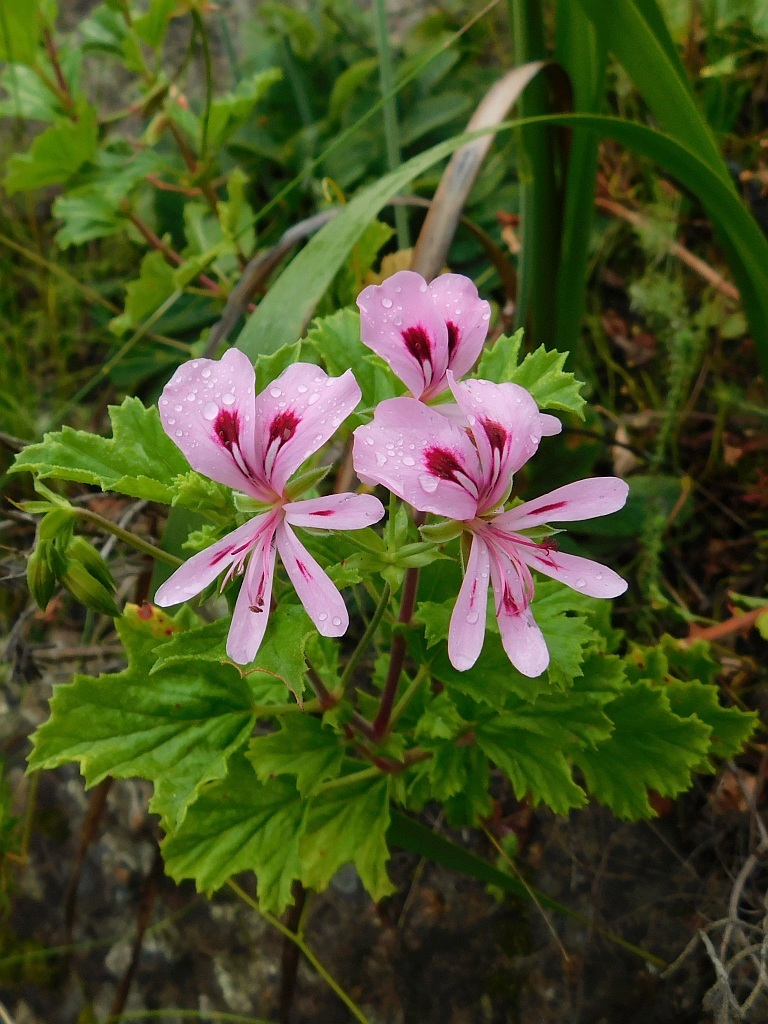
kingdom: Plantae
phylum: Tracheophyta
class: Magnoliopsida
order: Geraniales
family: Geraniaceae
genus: Pelargonium
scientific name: Pelargonium greytonense
